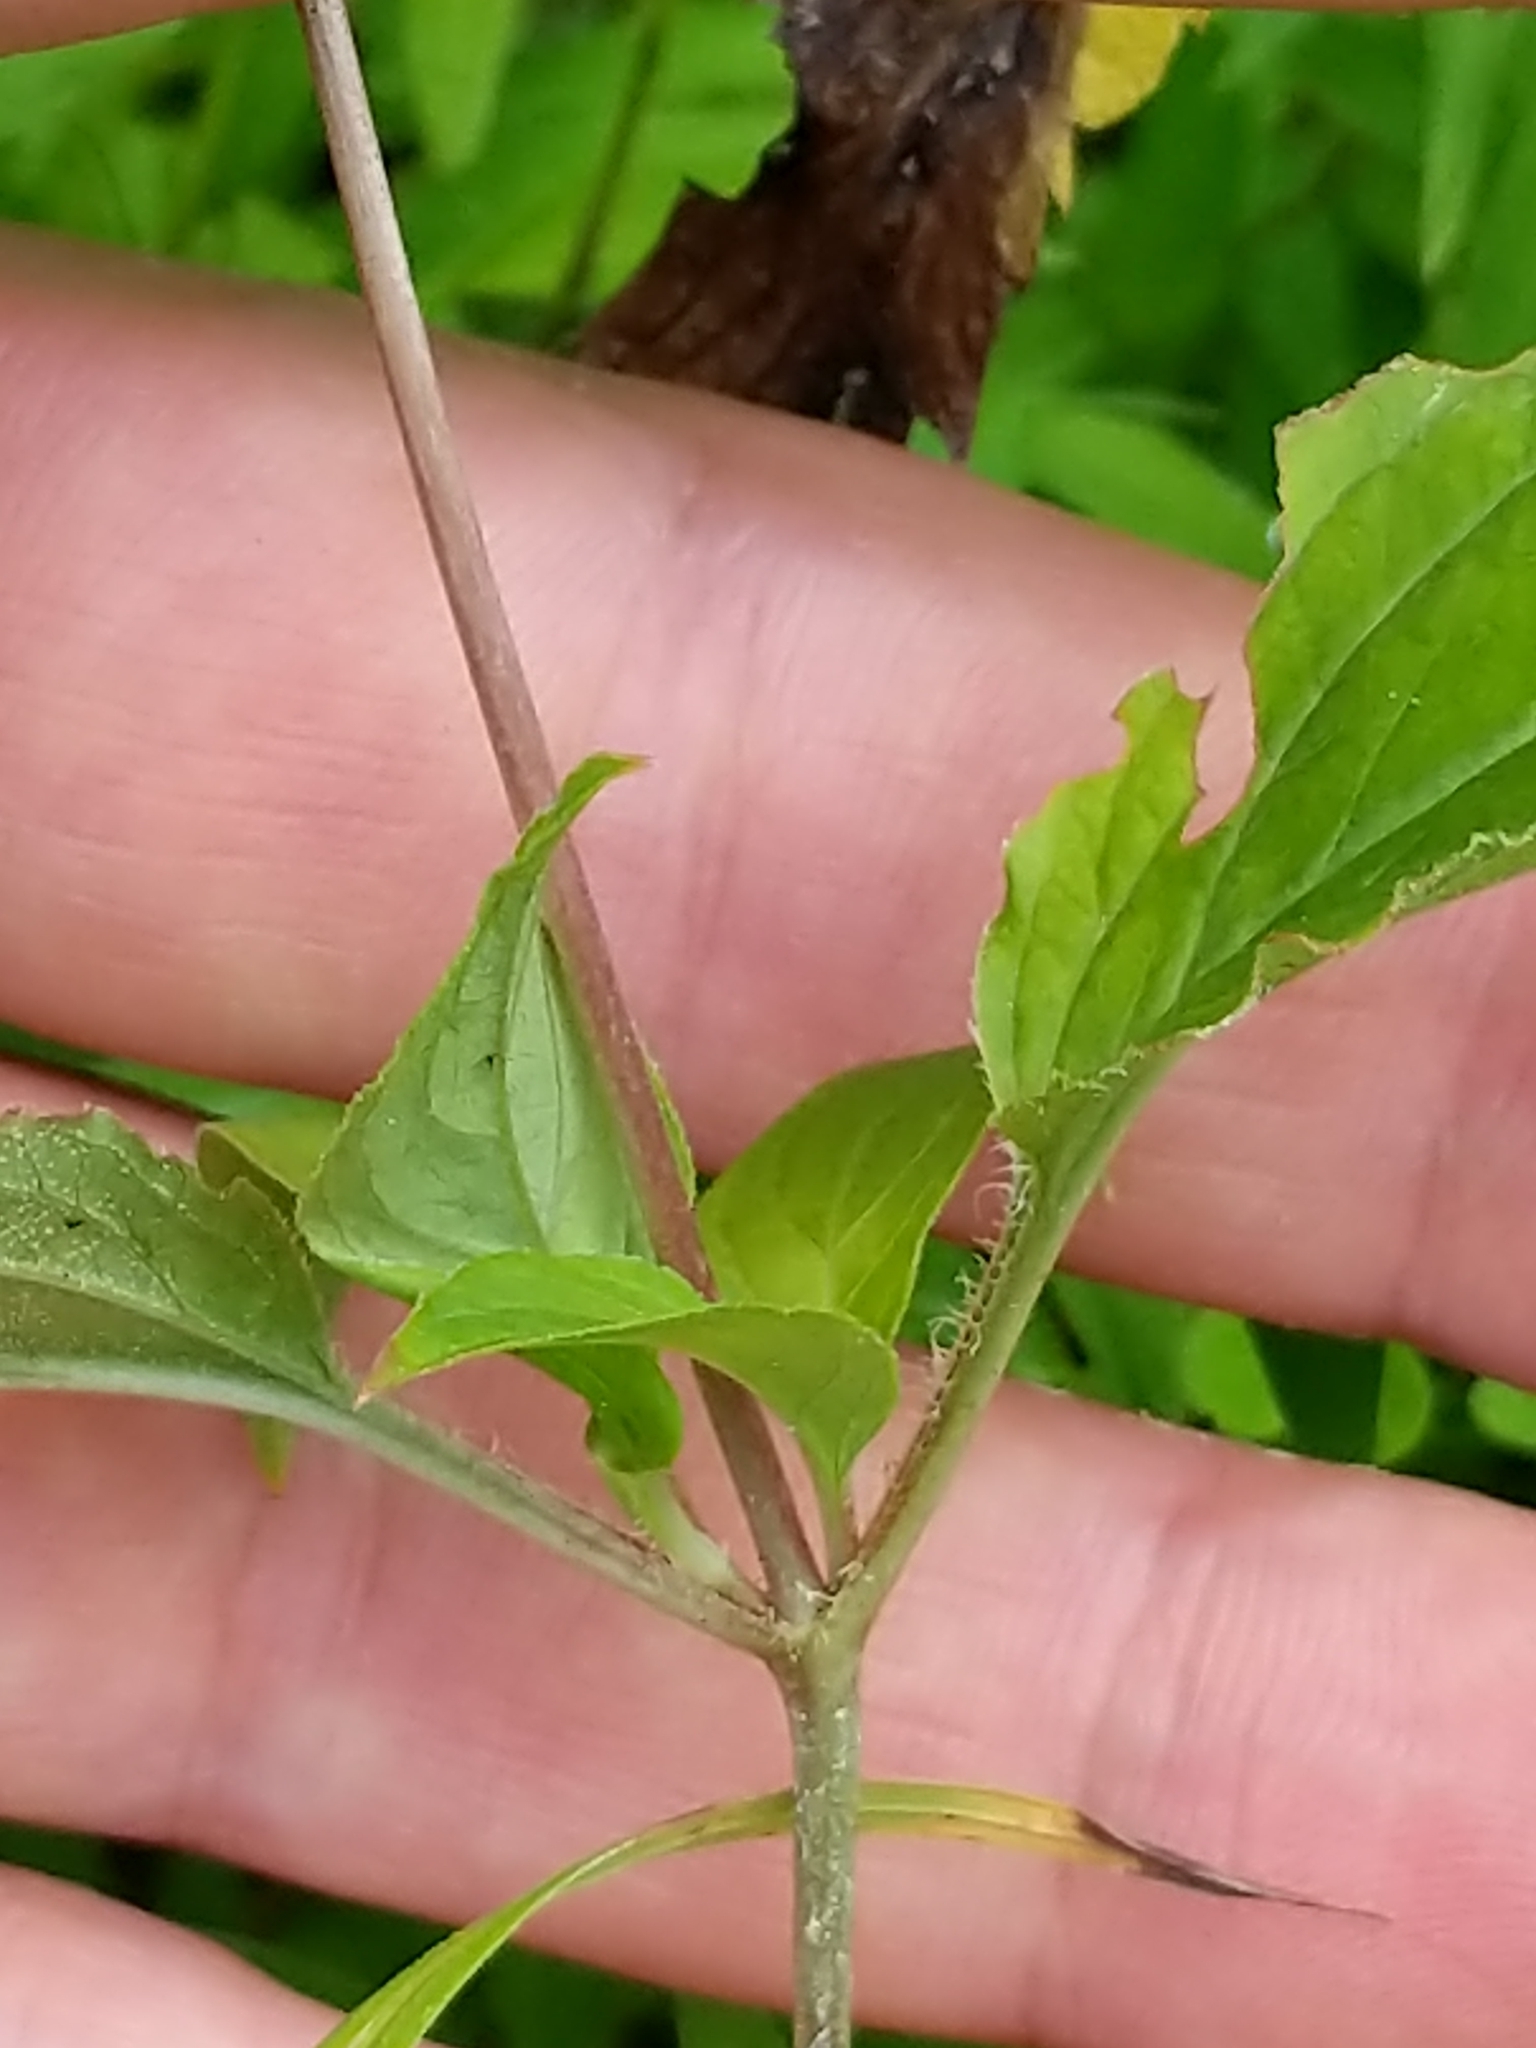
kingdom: Plantae
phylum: Tracheophyta
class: Magnoliopsida
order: Ericales
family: Primulaceae
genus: Lysimachia
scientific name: Lysimachia ciliata
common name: Fringed loosestrife
